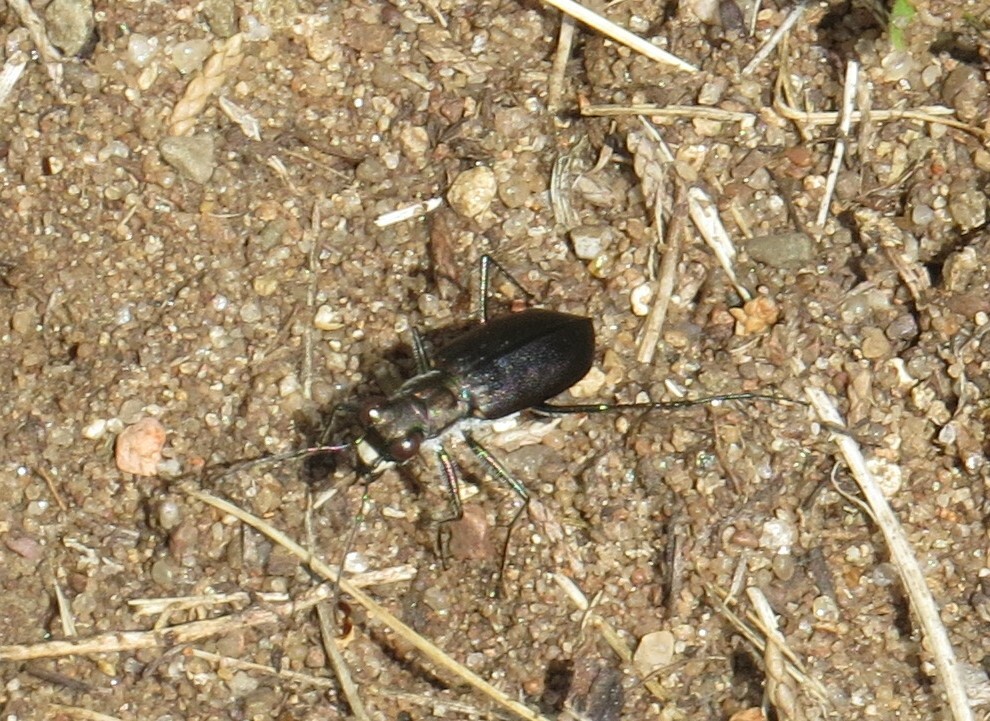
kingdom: Animalia
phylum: Arthropoda
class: Insecta
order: Coleoptera
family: Carabidae
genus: Cicindela
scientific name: Cicindela punctulata
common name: Punctured tiger beetle
